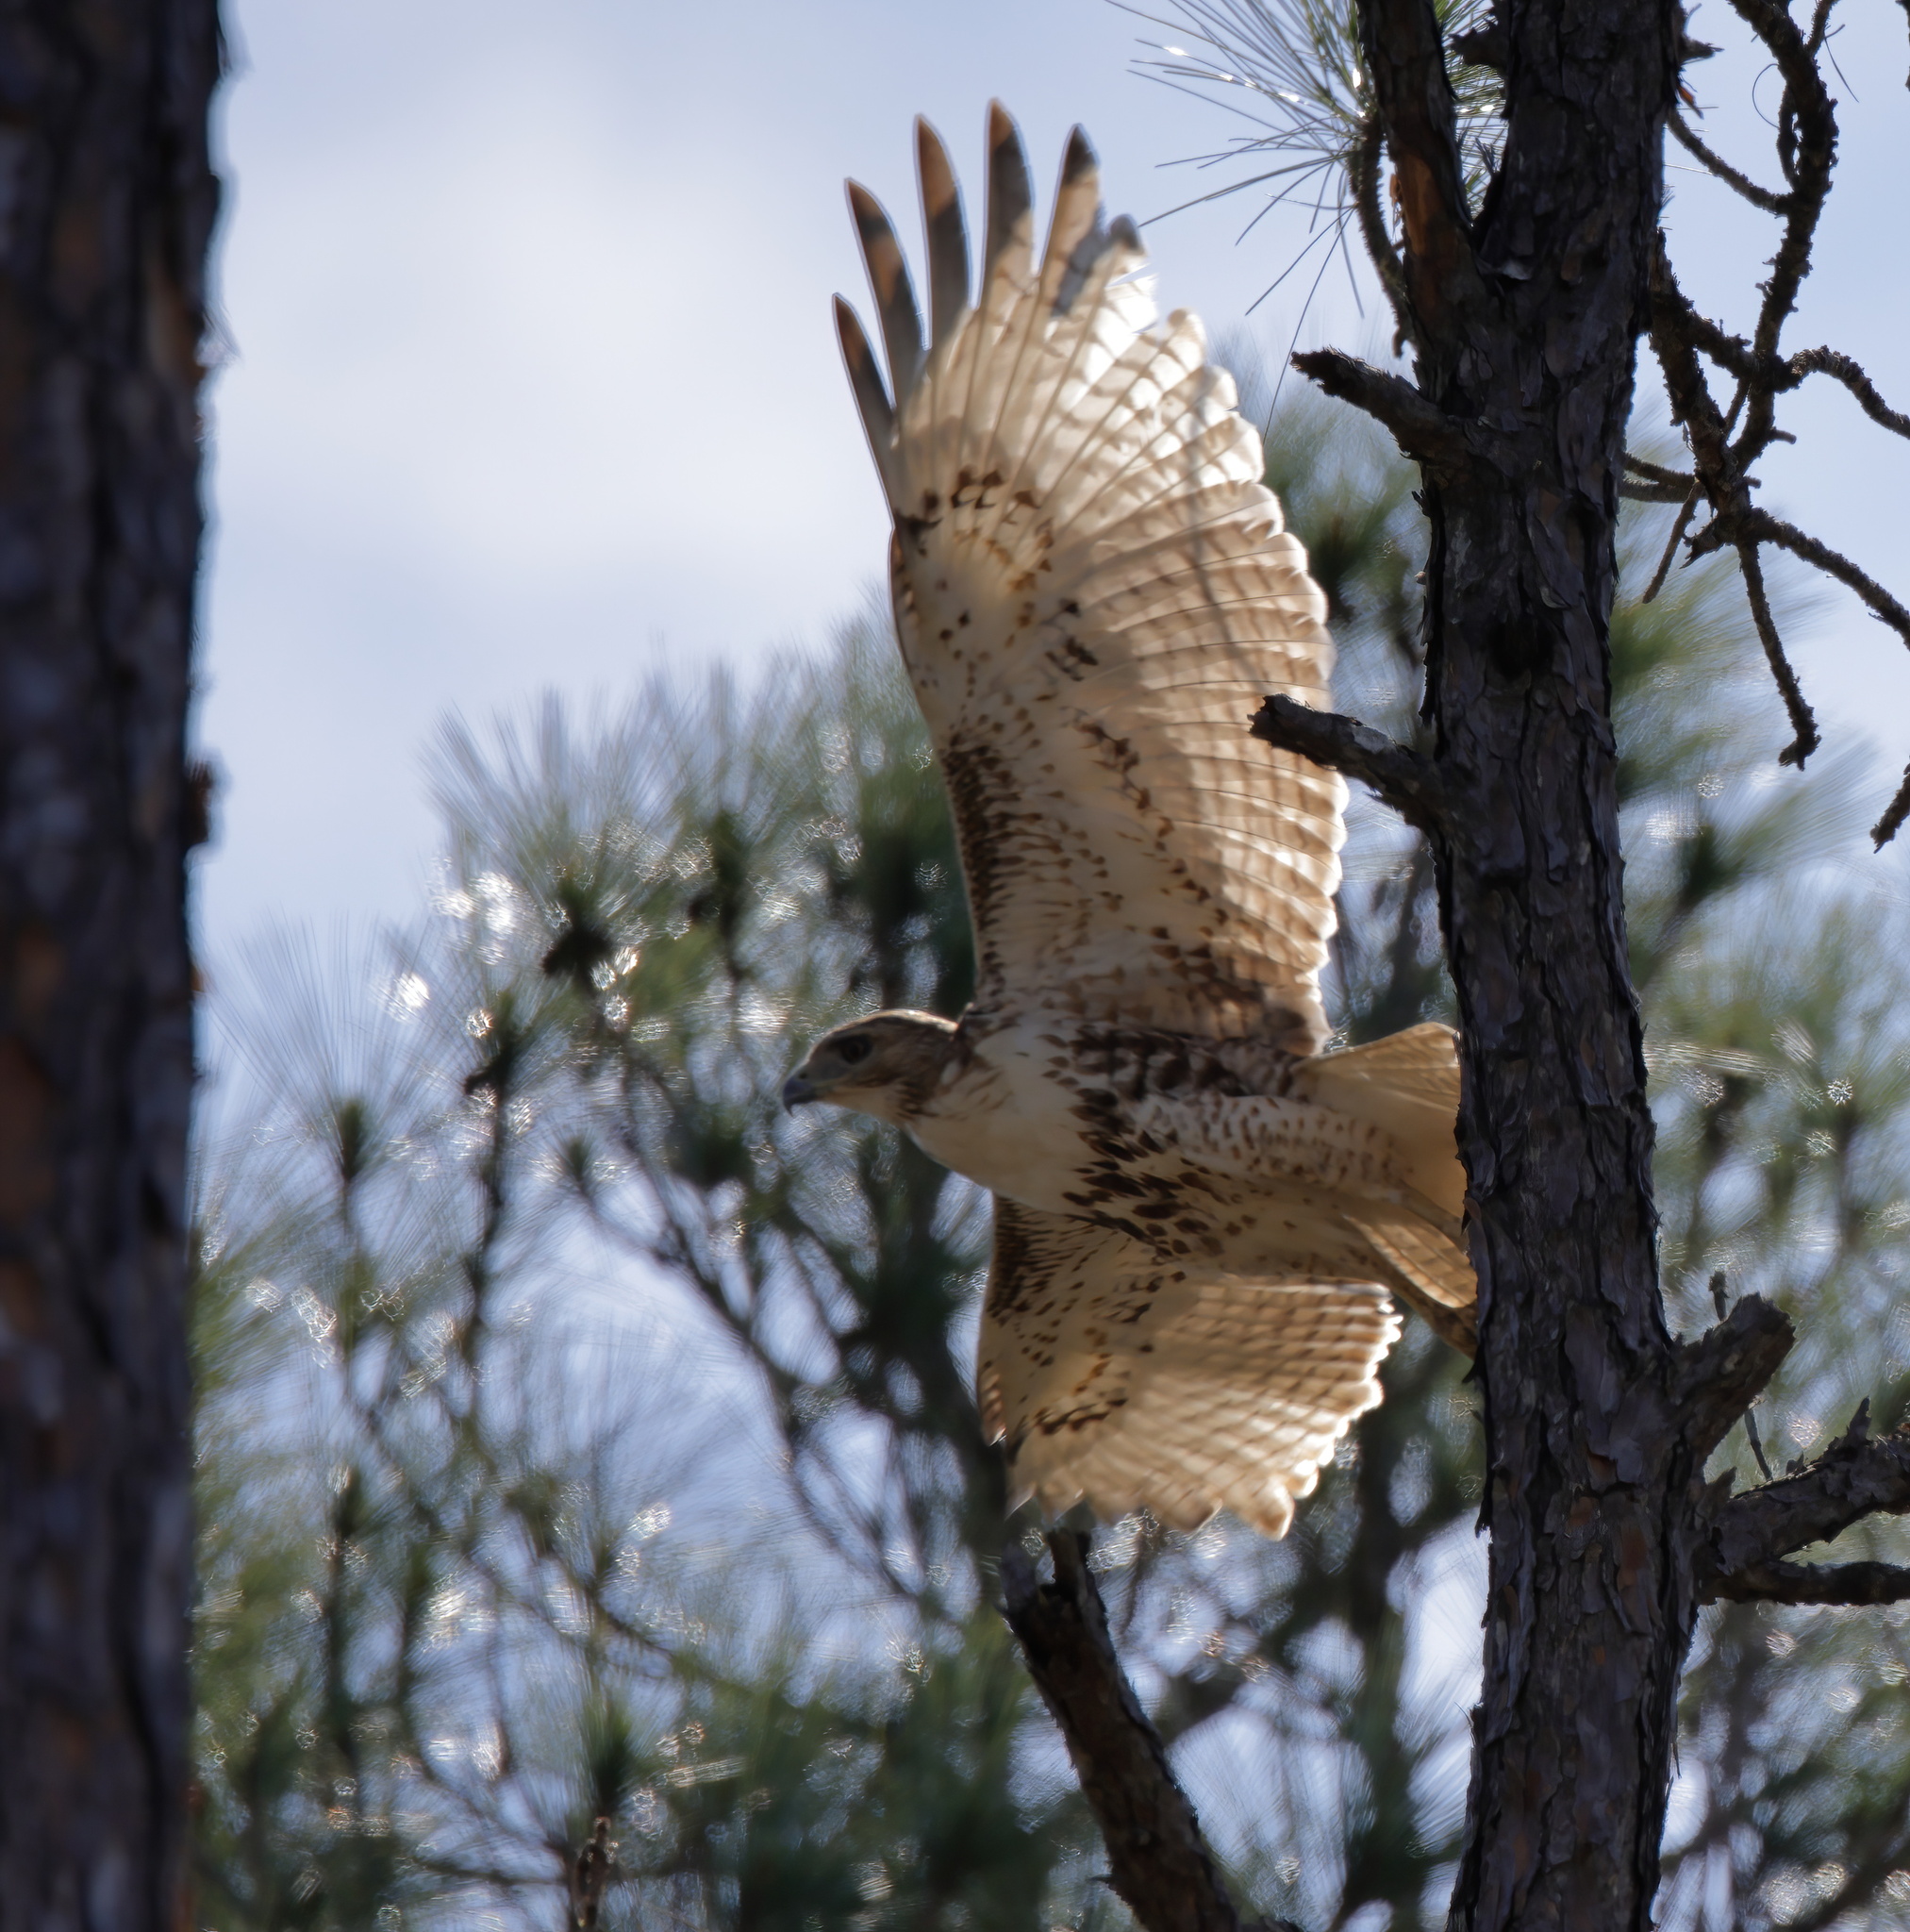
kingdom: Animalia
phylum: Chordata
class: Aves
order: Accipitriformes
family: Accipitridae
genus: Buteo
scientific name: Buteo jamaicensis
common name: Red-tailed hawk
